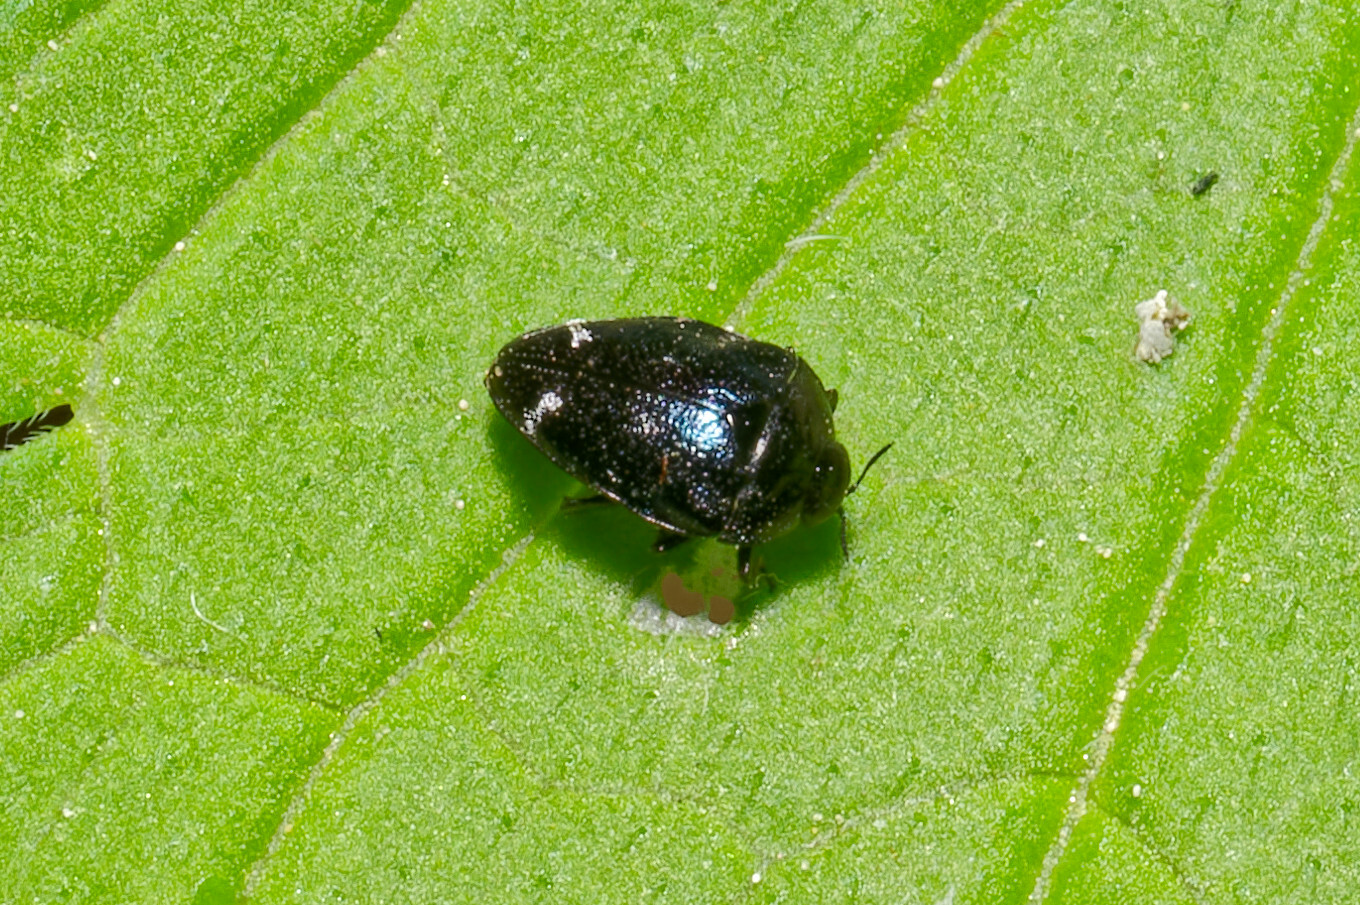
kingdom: Animalia
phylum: Arthropoda
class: Insecta
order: Coleoptera
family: Buprestidae
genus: Pachyschelus
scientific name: Pachyschelus purpureus
